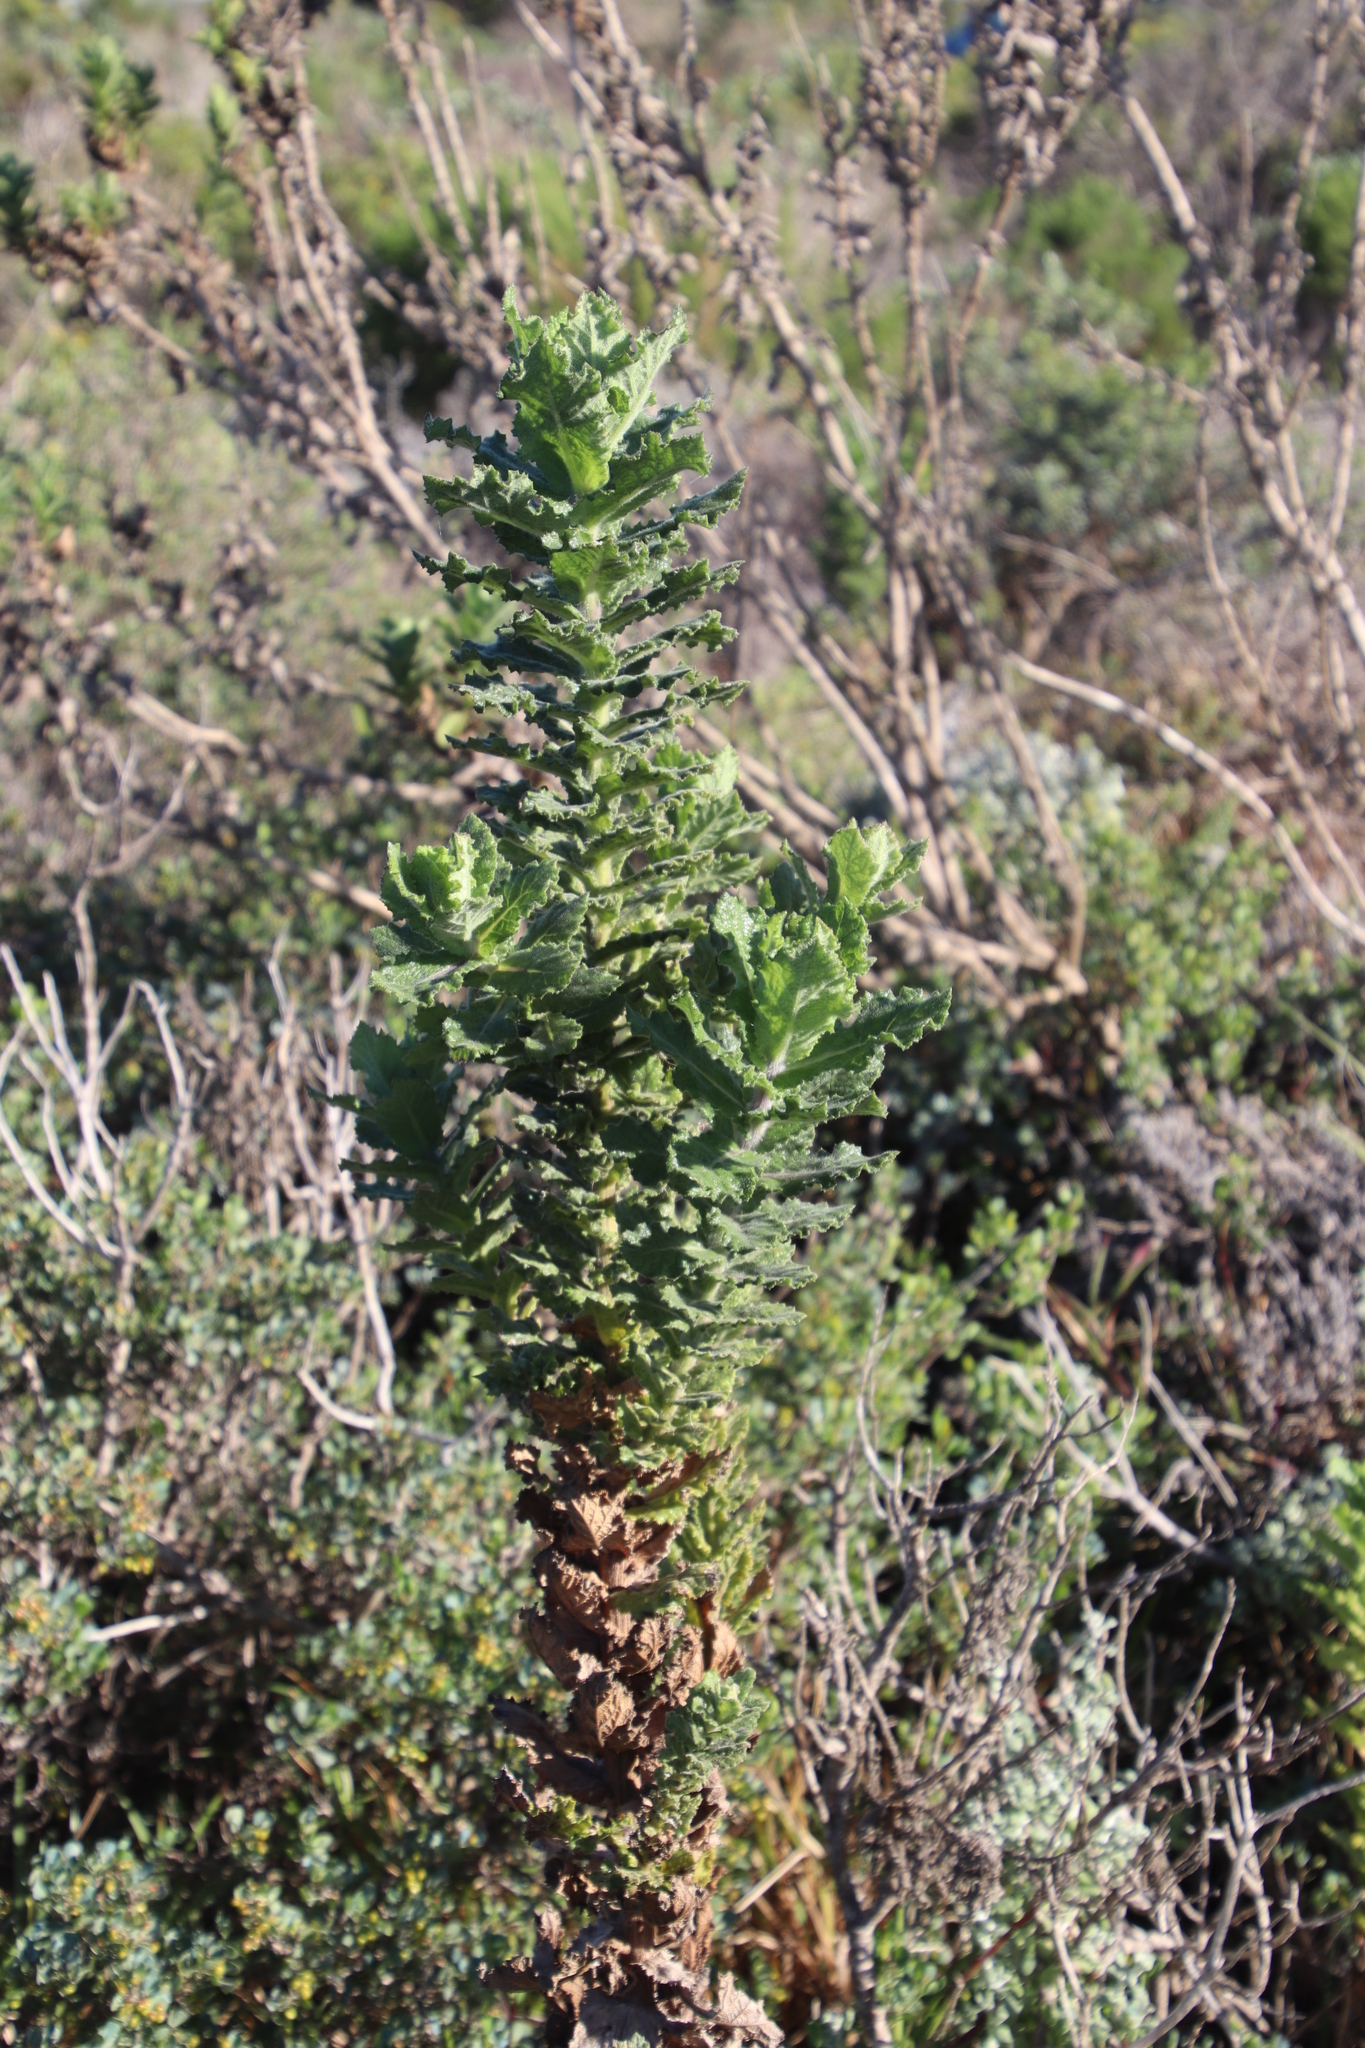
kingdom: Plantae
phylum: Tracheophyta
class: Magnoliopsida
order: Asterales
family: Asteraceae
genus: Senecio
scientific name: Senecio rigidus
